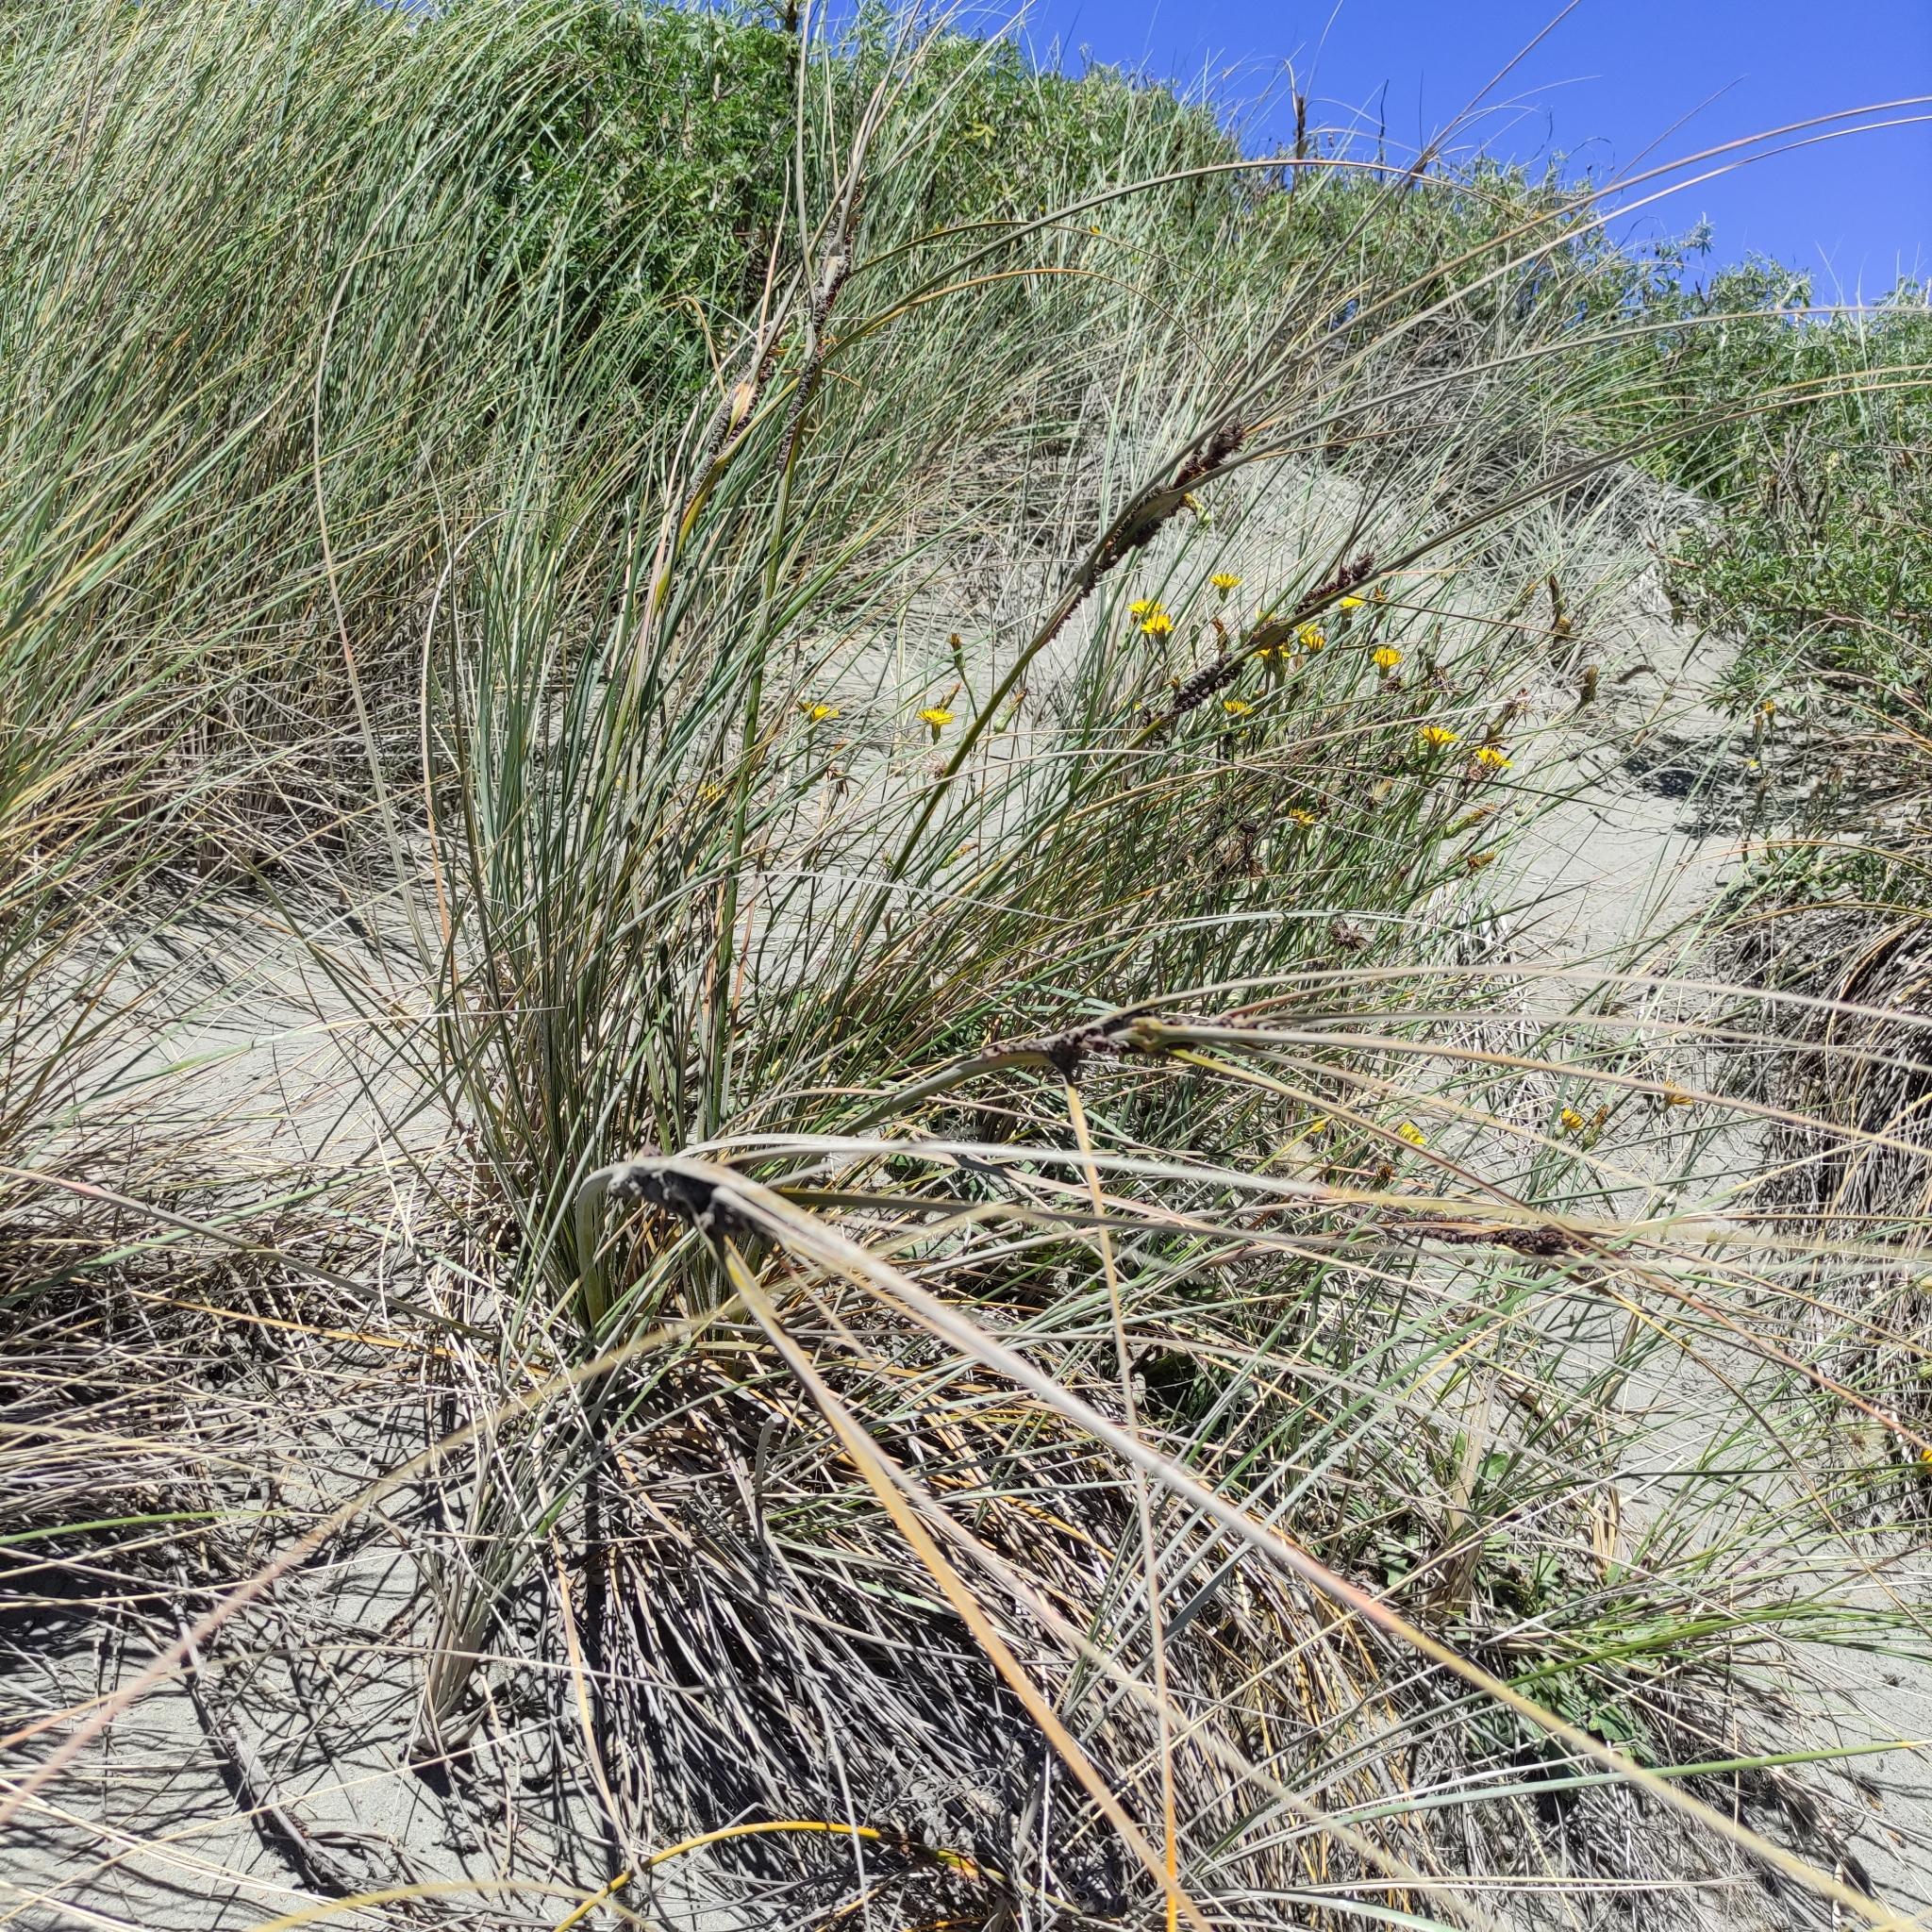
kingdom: Plantae
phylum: Tracheophyta
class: Liliopsida
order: Poales
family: Cyperaceae
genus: Ficinia
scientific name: Ficinia spiralis
